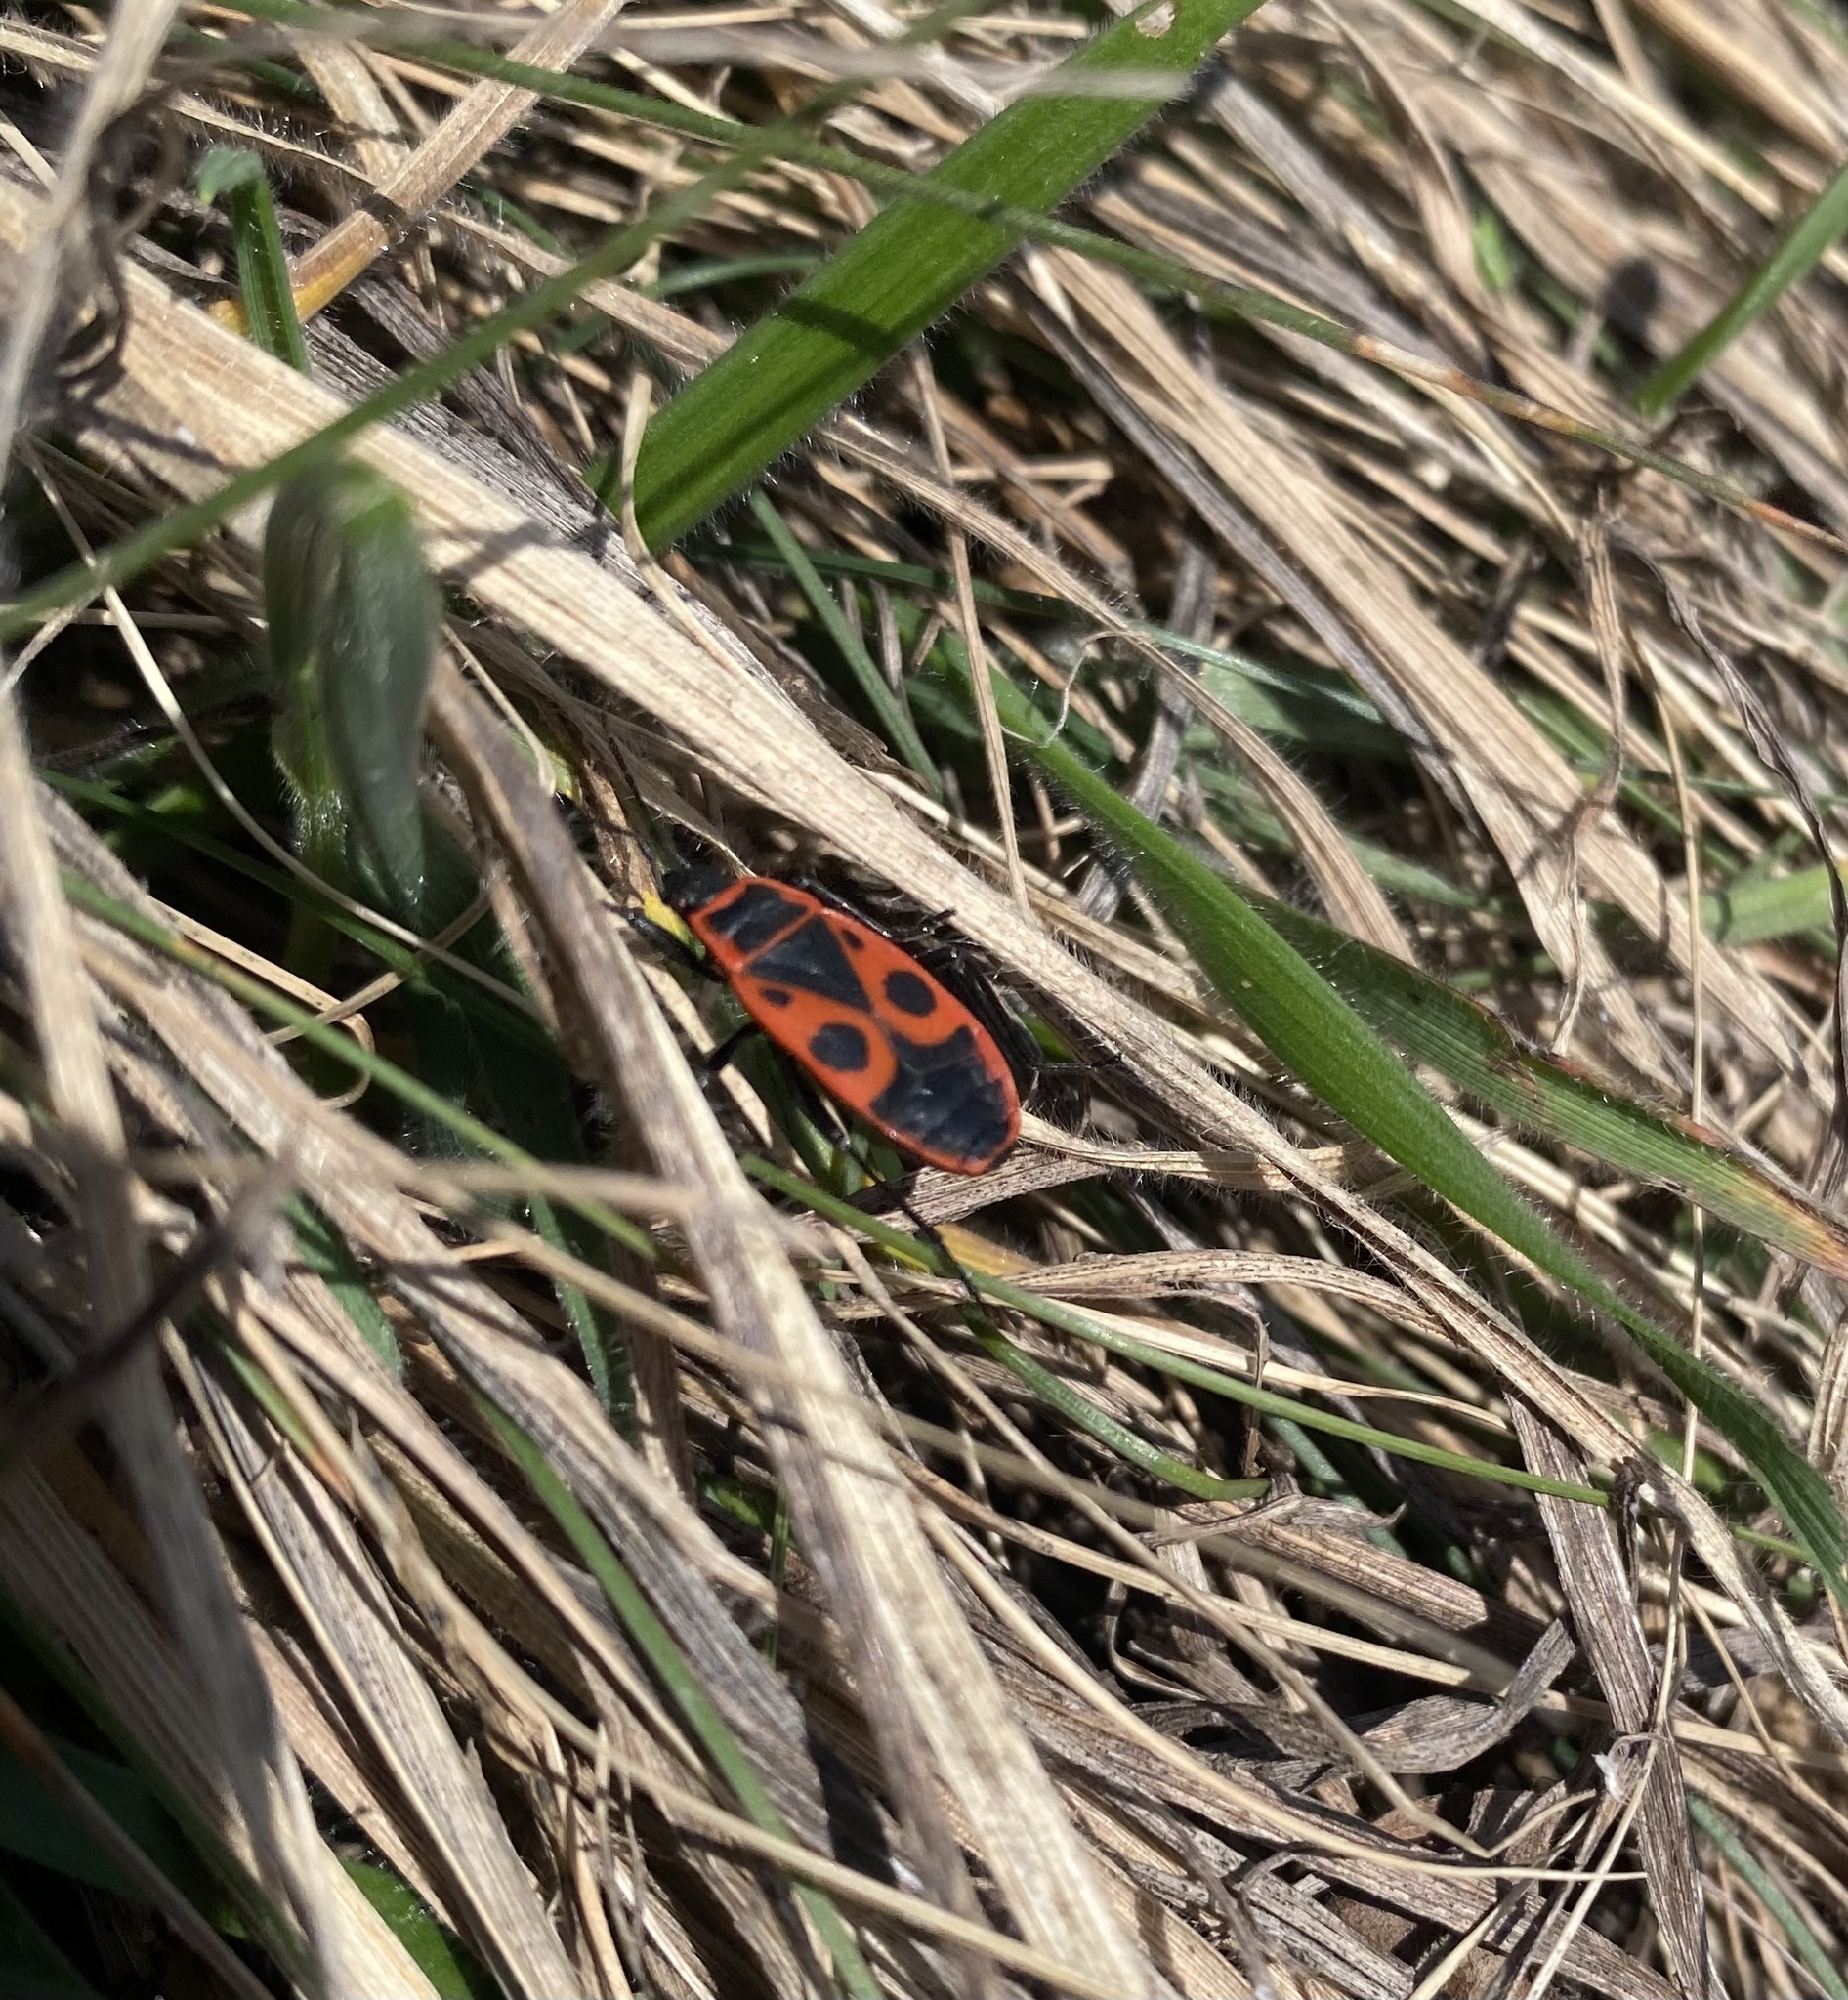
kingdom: Animalia
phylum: Arthropoda
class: Insecta
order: Hemiptera
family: Pyrrhocoridae
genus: Pyrrhocoris
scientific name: Pyrrhocoris apterus
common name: Firebug
